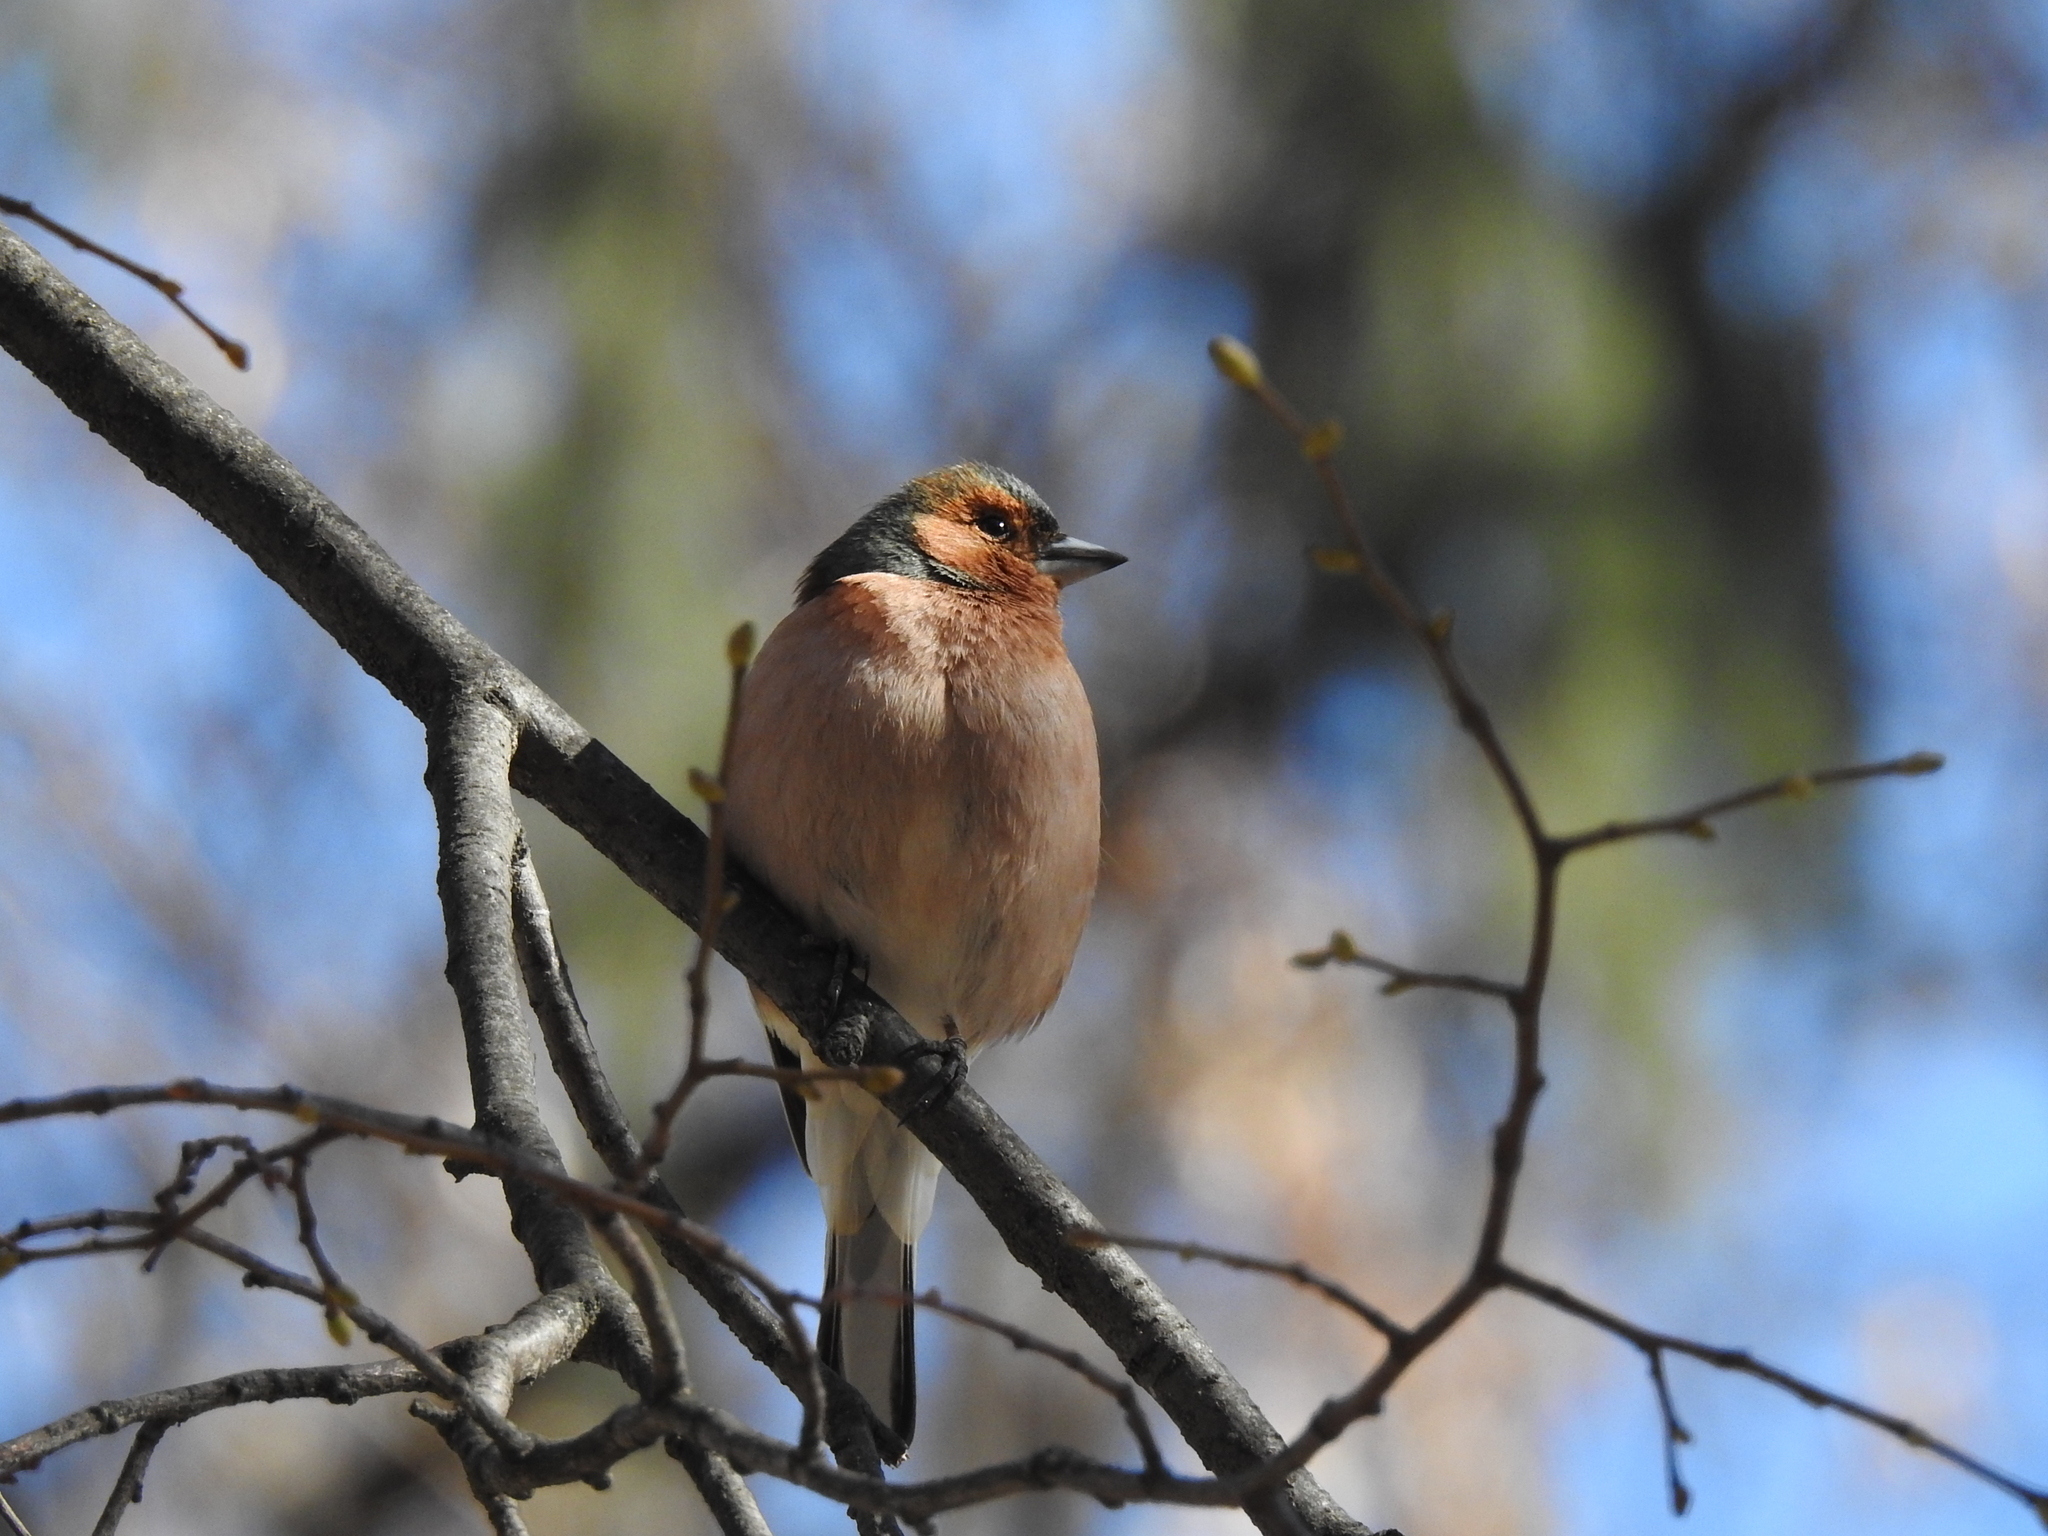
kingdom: Animalia
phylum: Chordata
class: Aves
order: Passeriformes
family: Fringillidae
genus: Fringilla
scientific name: Fringilla coelebs
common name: Common chaffinch
